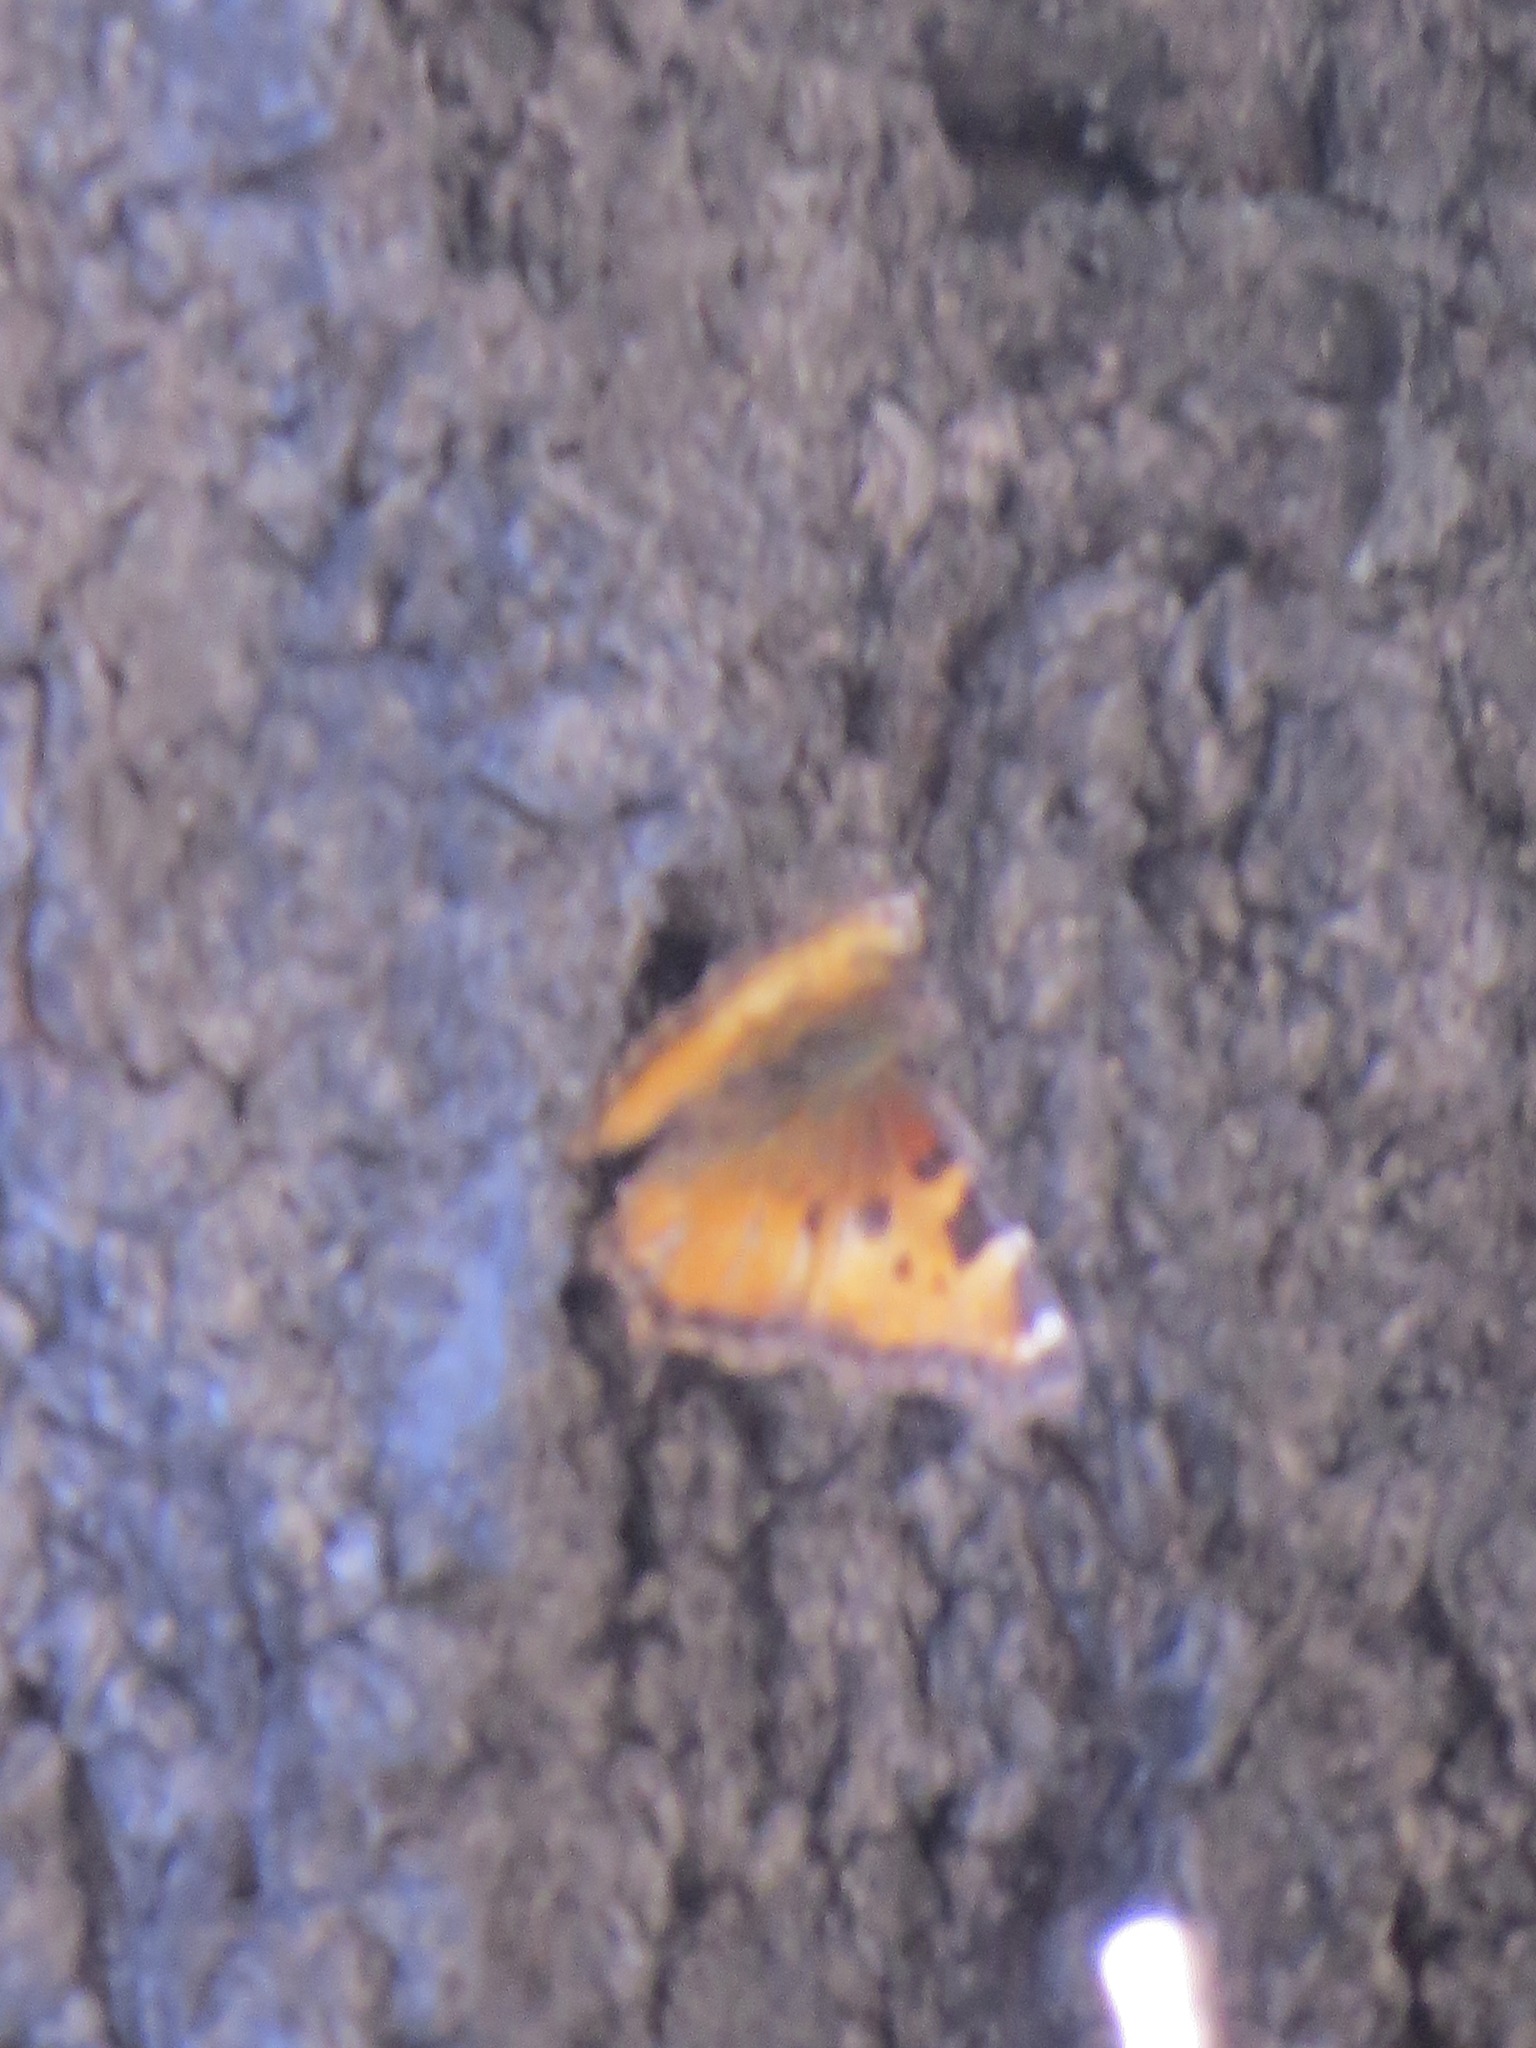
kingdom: Animalia
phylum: Arthropoda
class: Insecta
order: Lepidoptera
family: Nymphalidae
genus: Nymphalis
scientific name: Nymphalis californica
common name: California tortoiseshell
